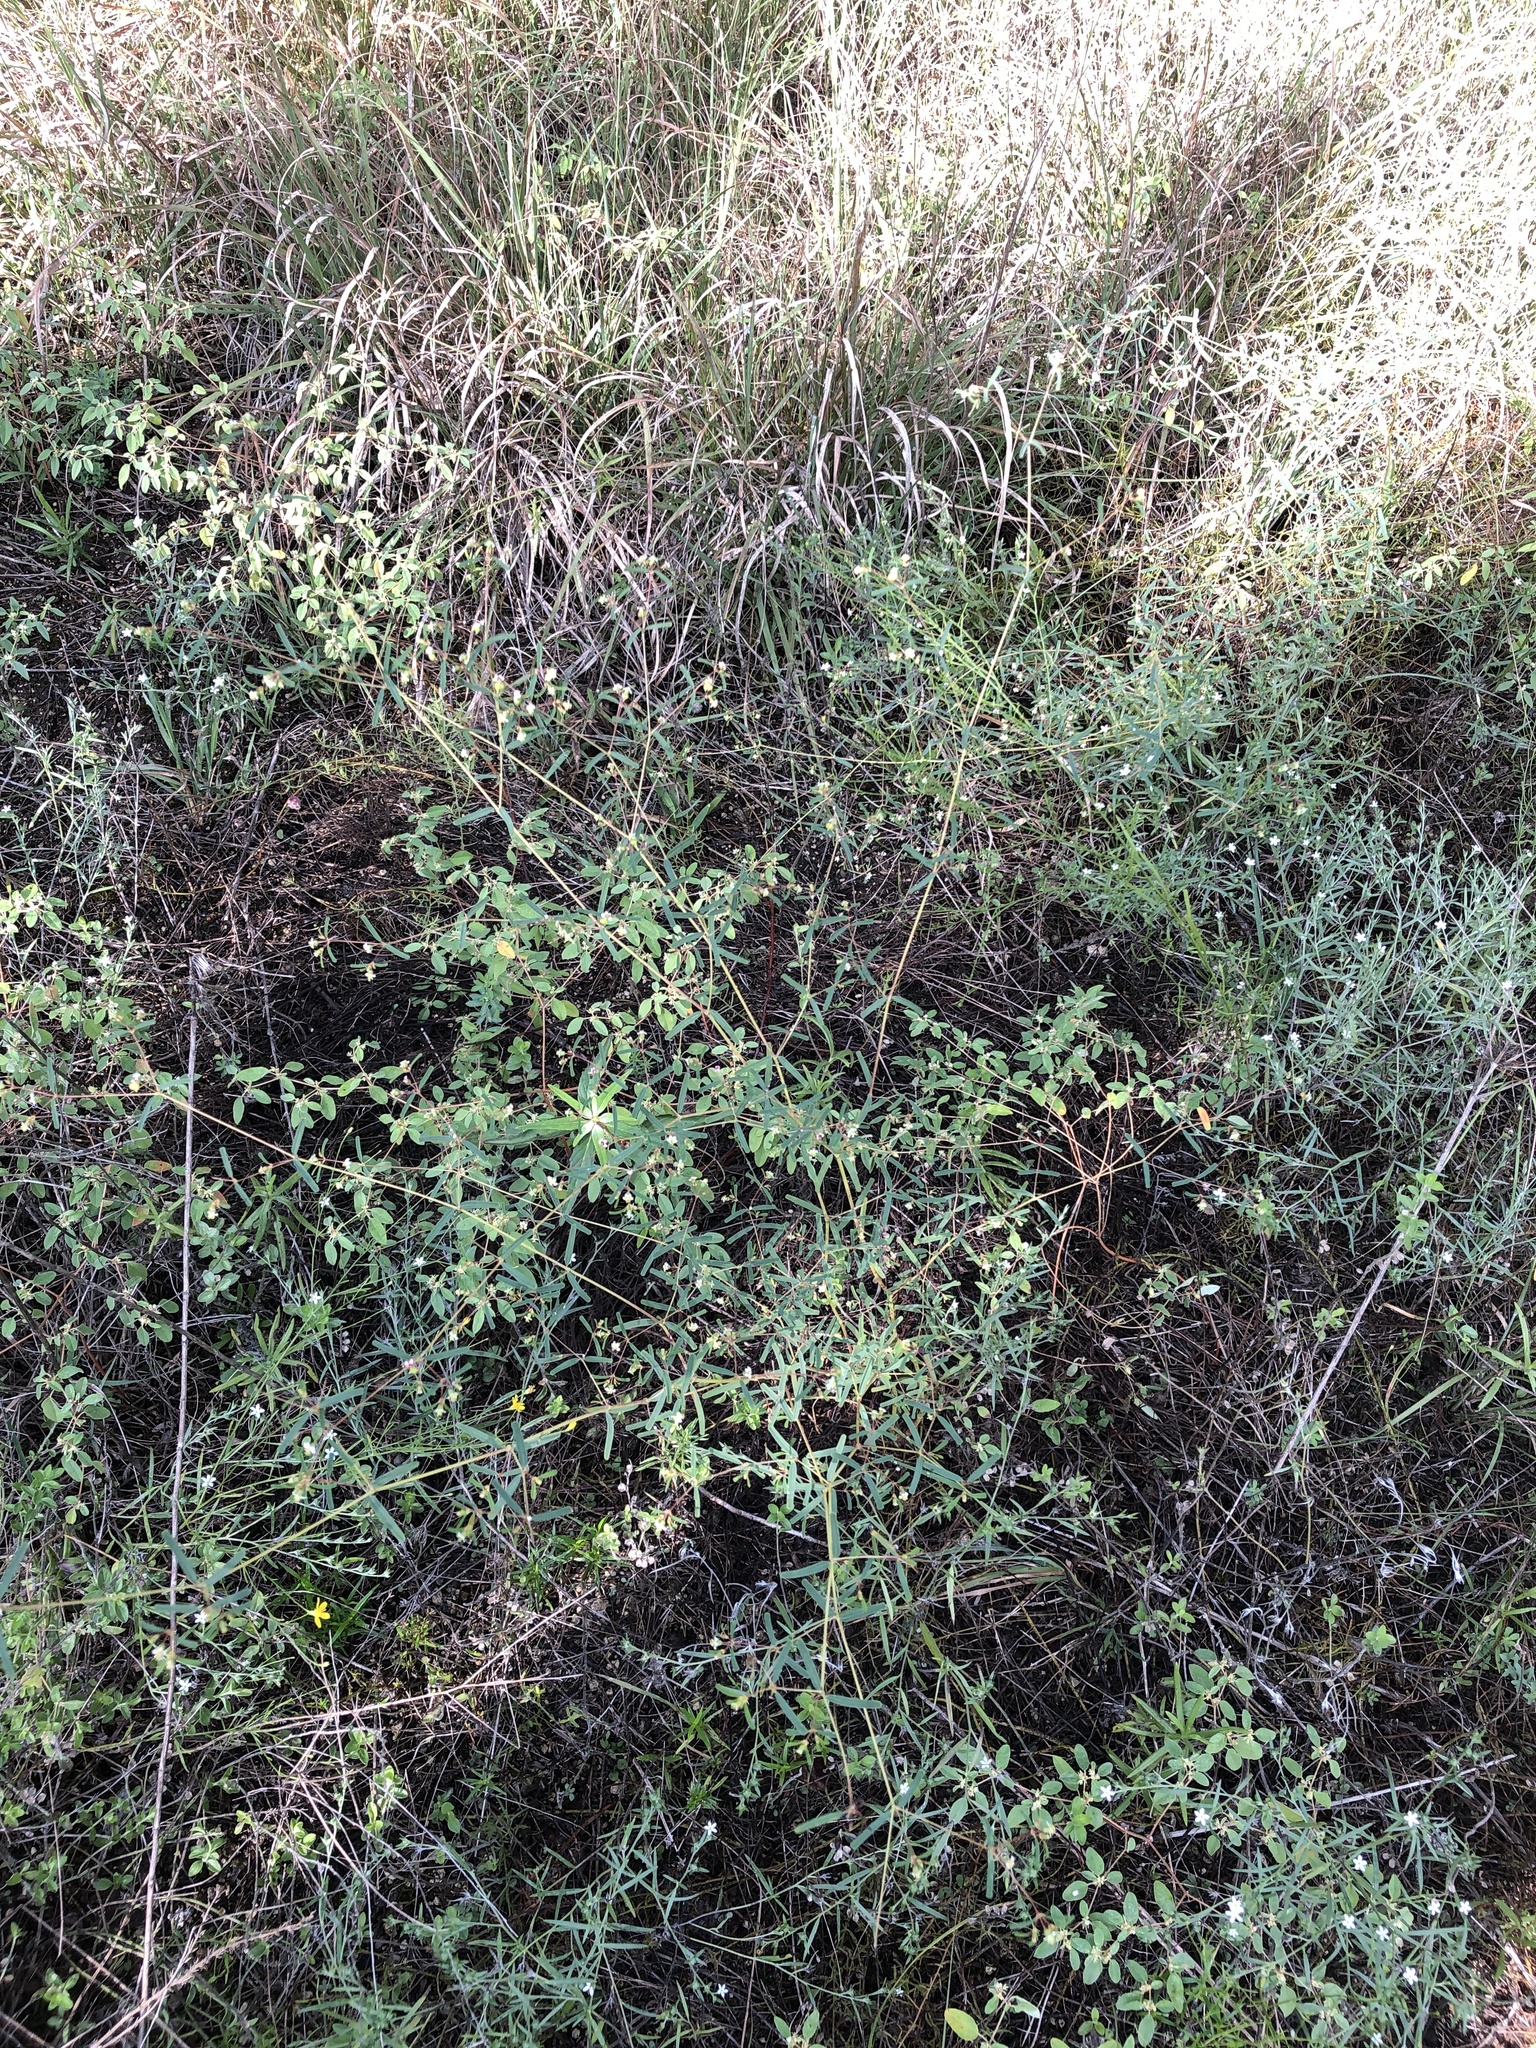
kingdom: Plantae
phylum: Tracheophyta
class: Magnoliopsida
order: Malpighiales
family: Euphorbiaceae
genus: Euphorbia
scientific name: Euphorbia missurica
